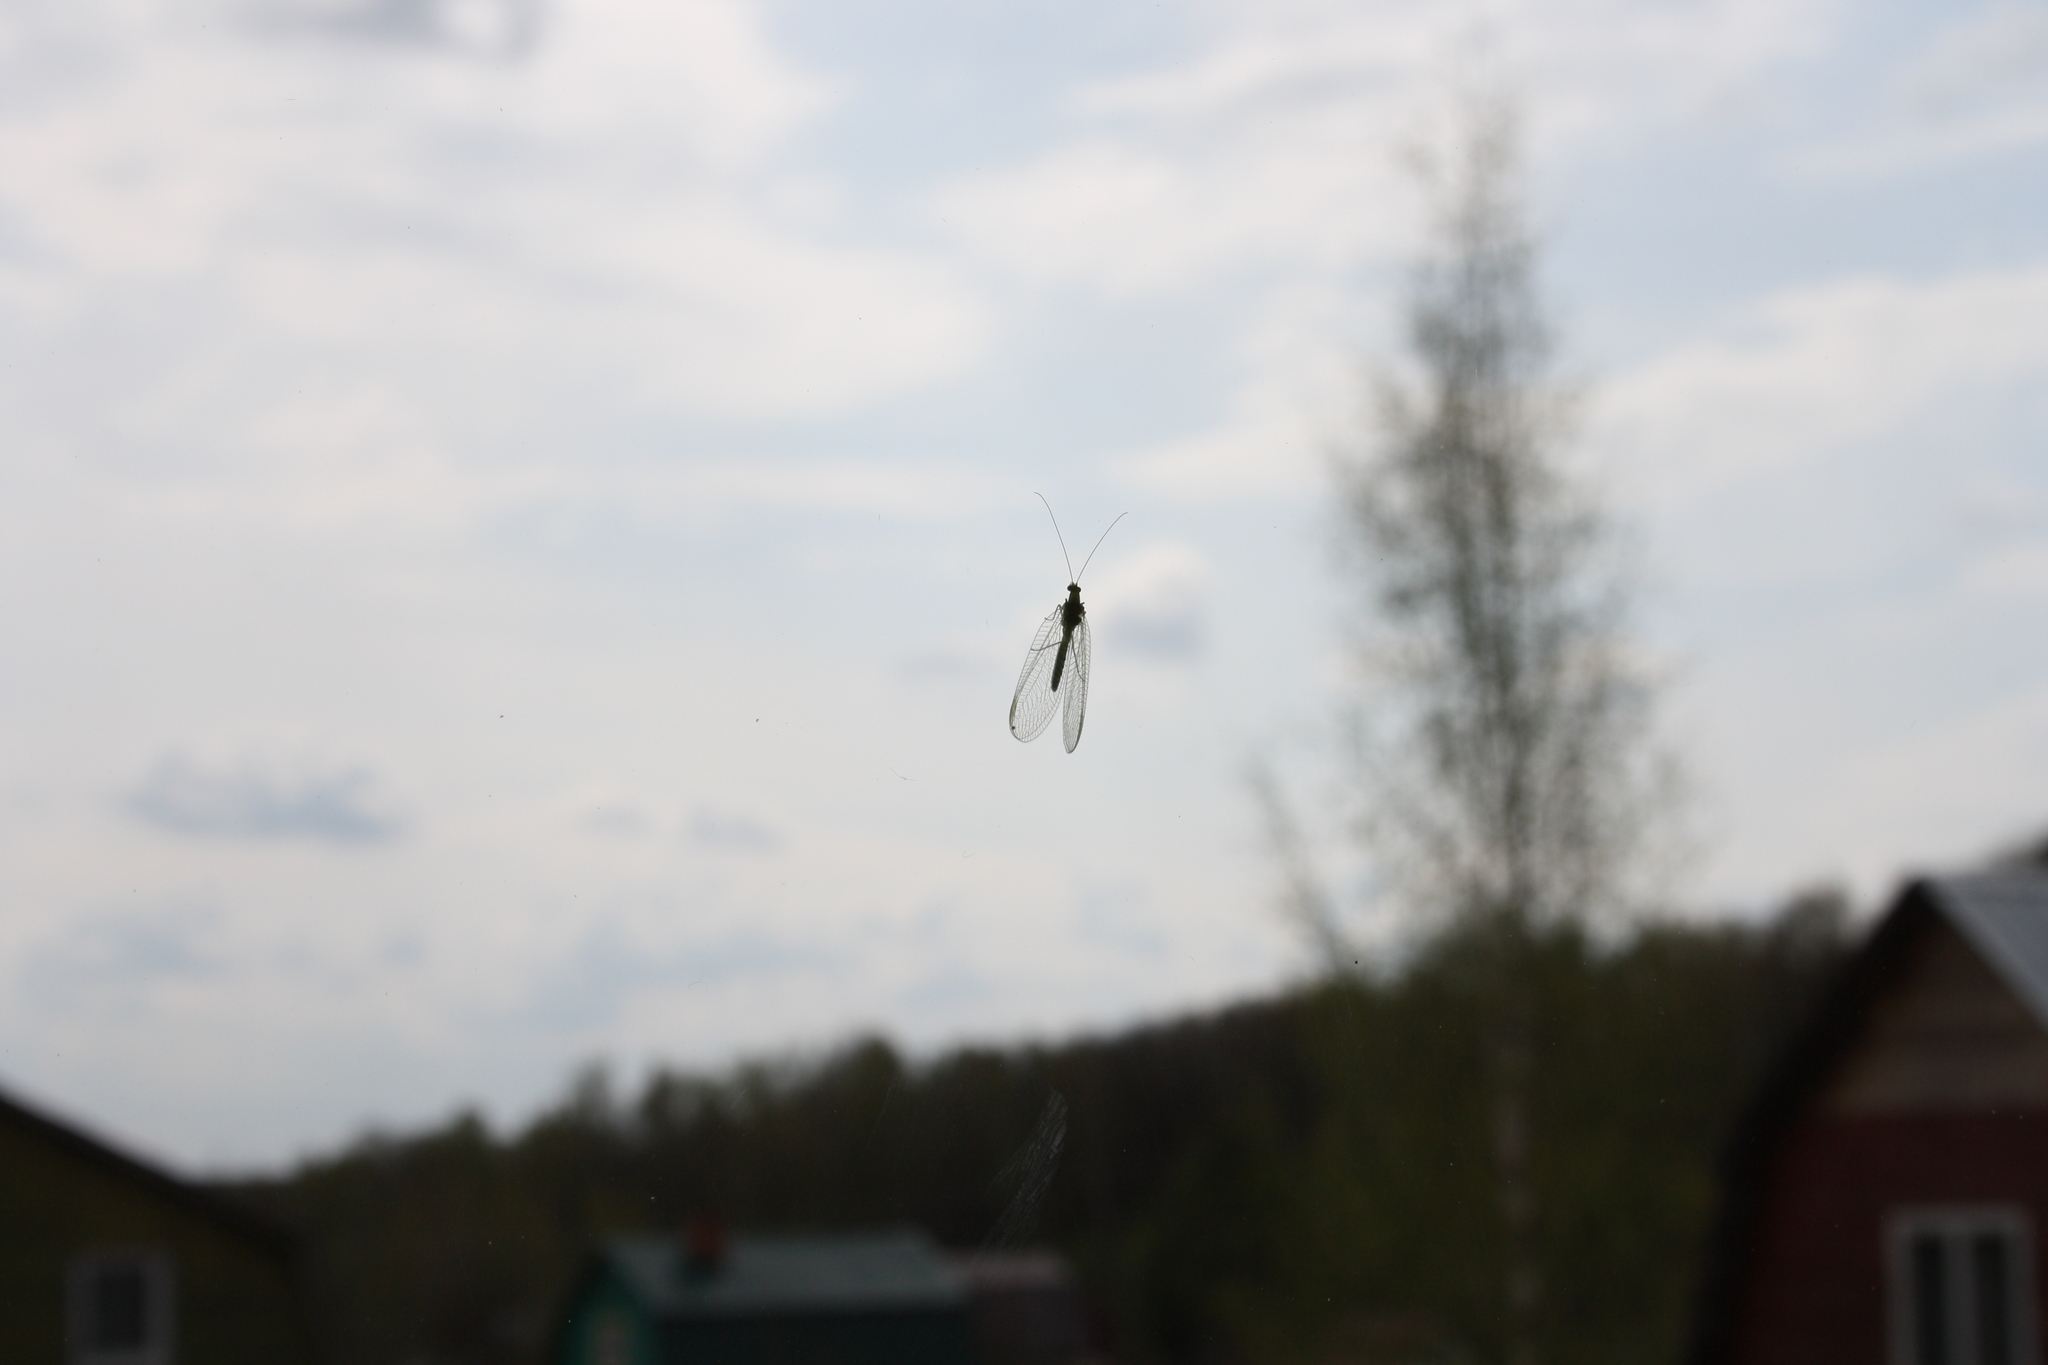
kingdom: Animalia
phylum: Arthropoda
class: Insecta
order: Neuroptera
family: Chrysopidae
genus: Chrysoperla
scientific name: Chrysoperla
